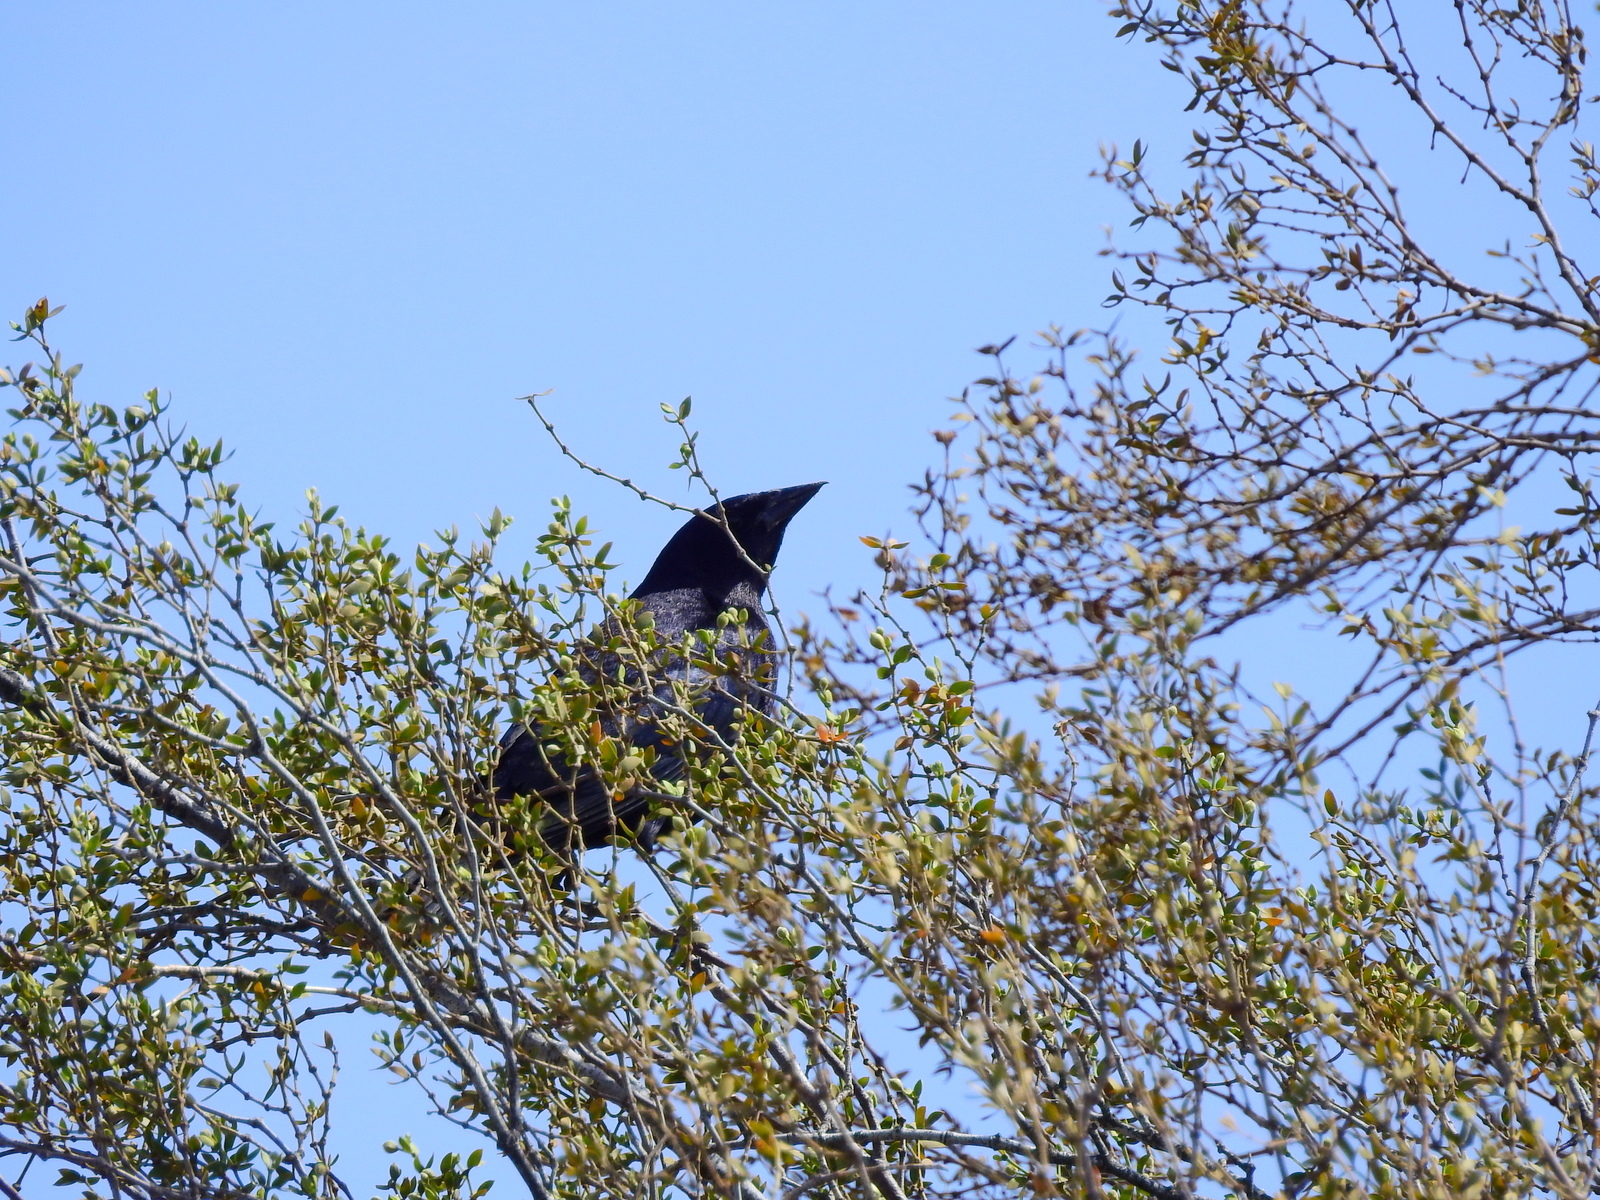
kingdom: Animalia
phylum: Chordata
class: Aves
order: Passeriformes
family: Icteridae
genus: Molothrus
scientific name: Molothrus bonariensis
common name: Shiny cowbird
